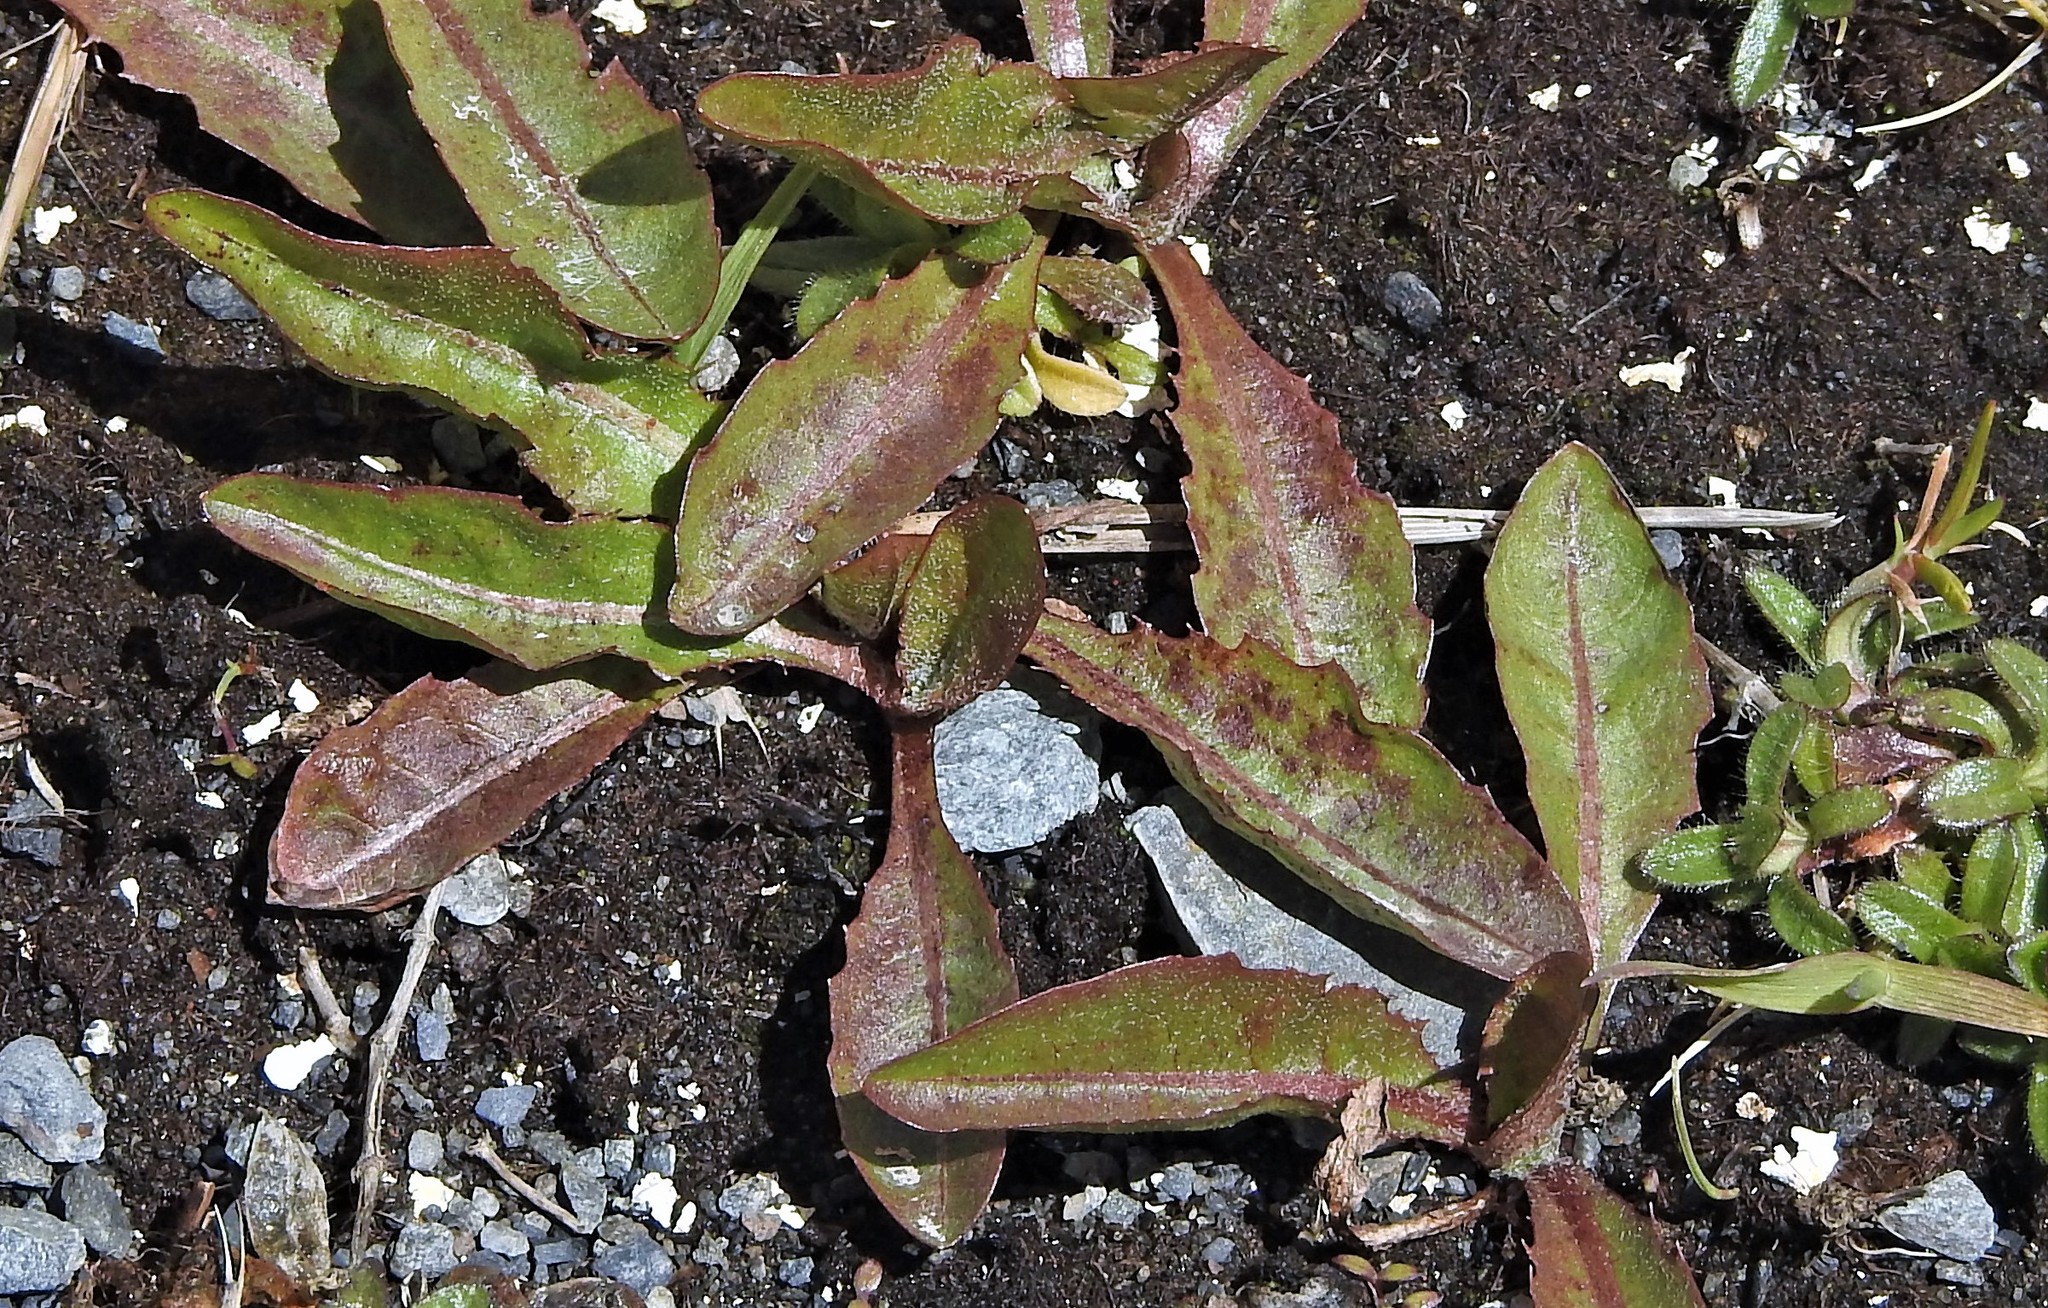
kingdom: Plantae
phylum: Tracheophyta
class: Magnoliopsida
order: Asterales
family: Asteraceae
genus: Taraxacum
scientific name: Taraxacum officinale
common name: Common dandelion
